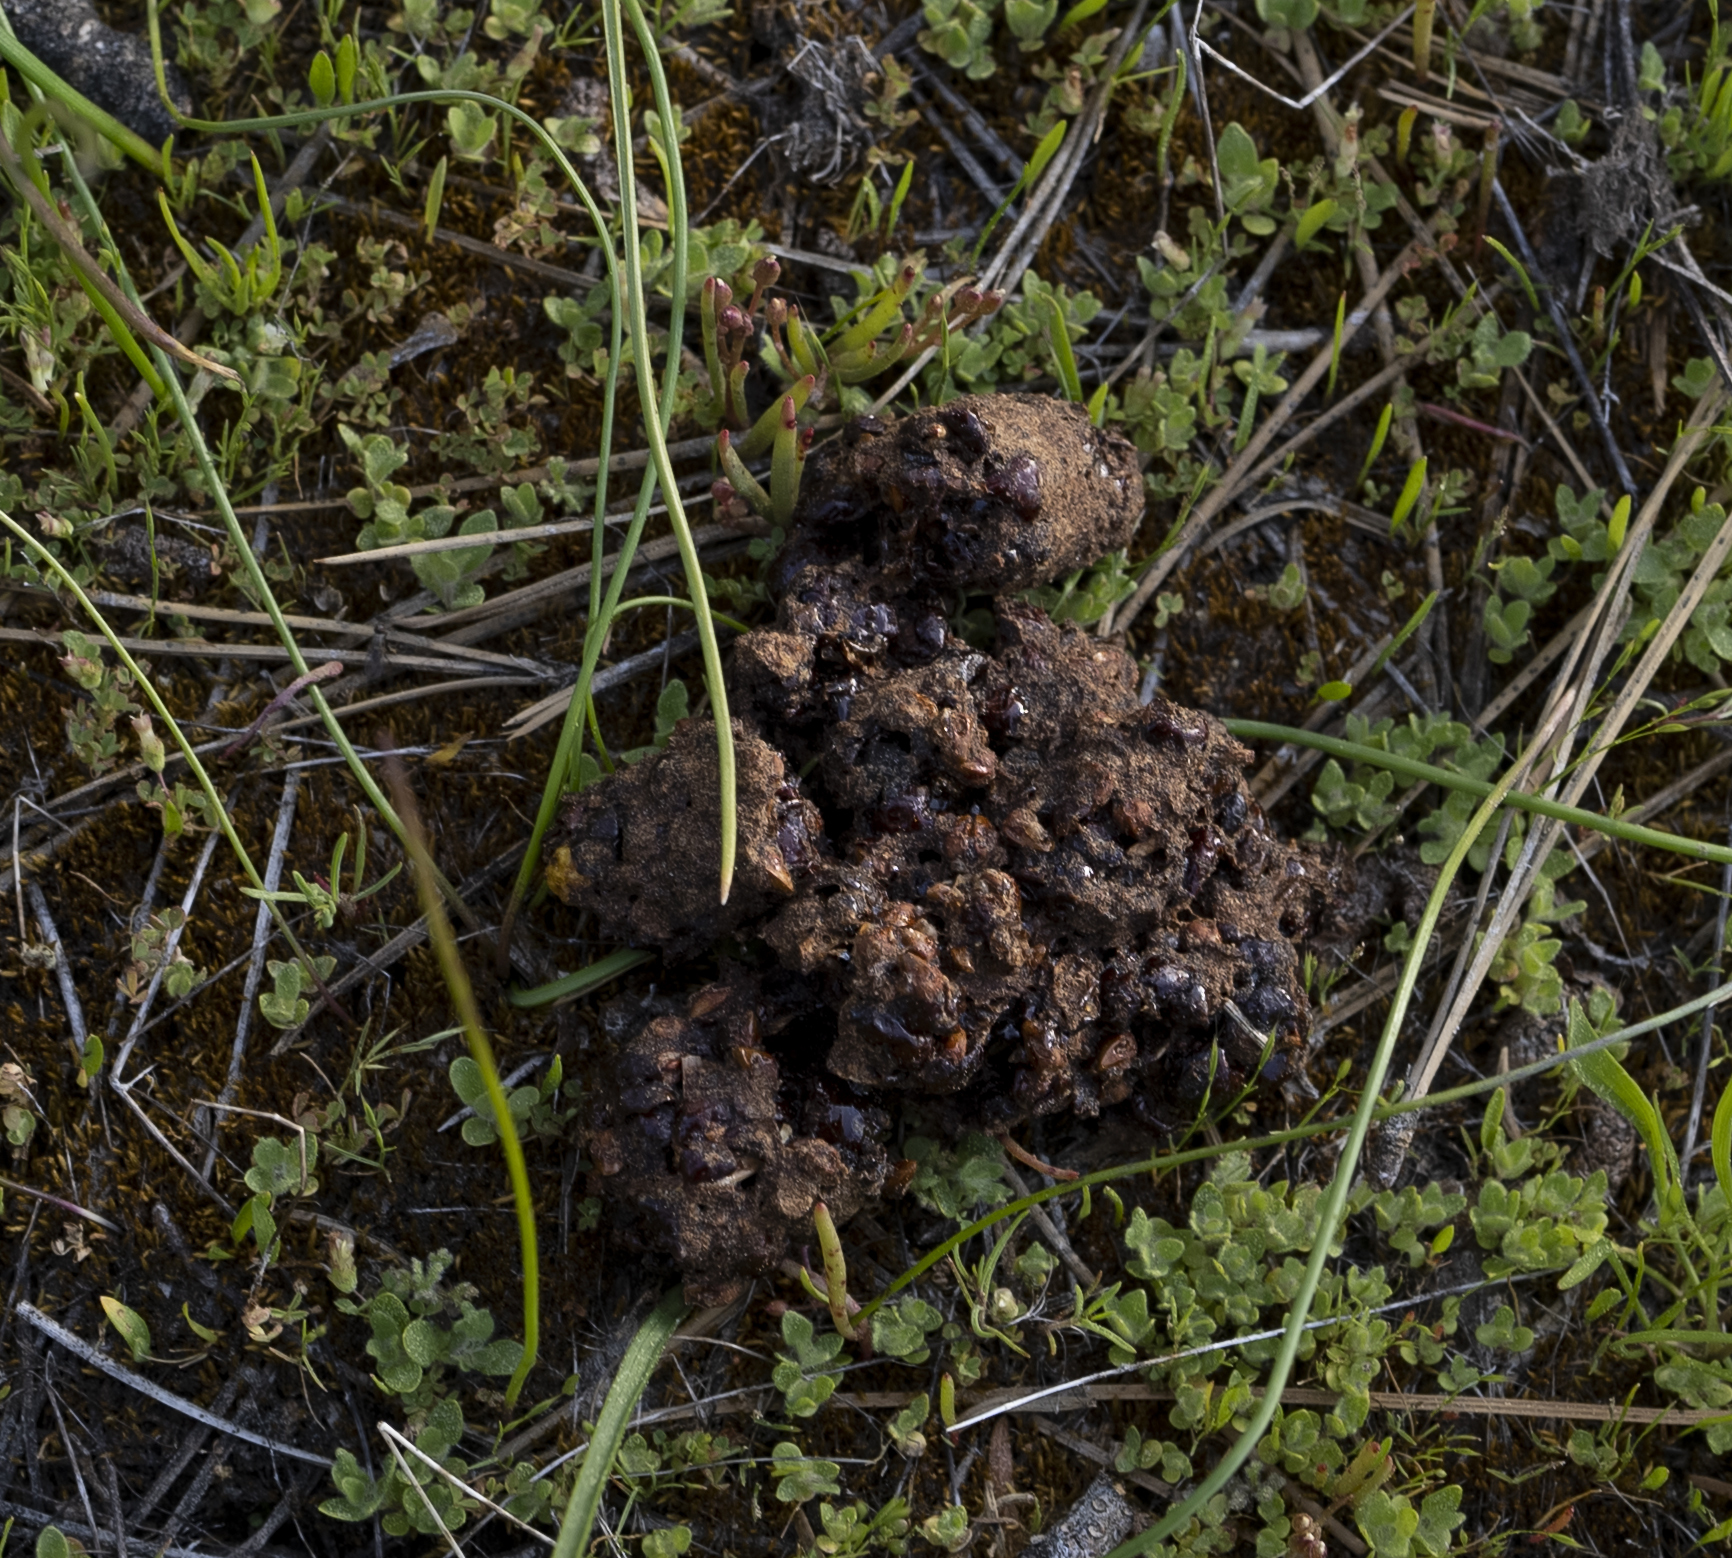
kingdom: Animalia
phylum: Chordata
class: Mammalia
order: Carnivora
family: Ursidae
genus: Ursus
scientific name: Ursus americanus
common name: American black bear
